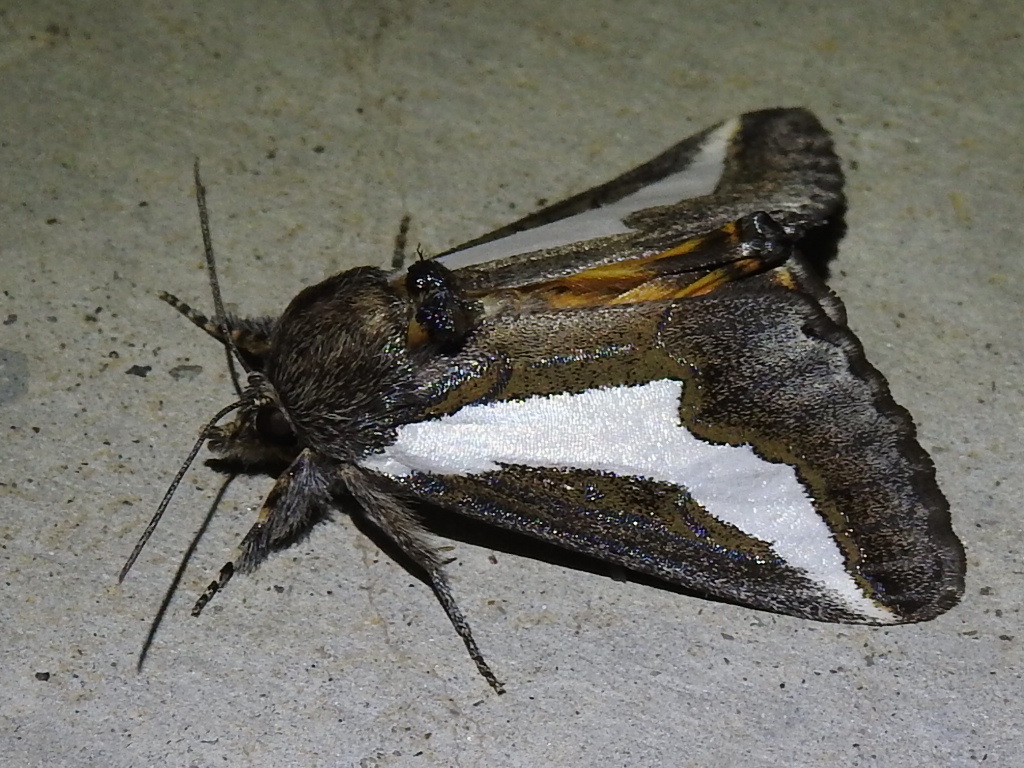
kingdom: Animalia
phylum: Arthropoda
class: Insecta
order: Lepidoptera
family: Noctuidae
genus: Euscirrhopterus
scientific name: Euscirrhopterus cosyra
